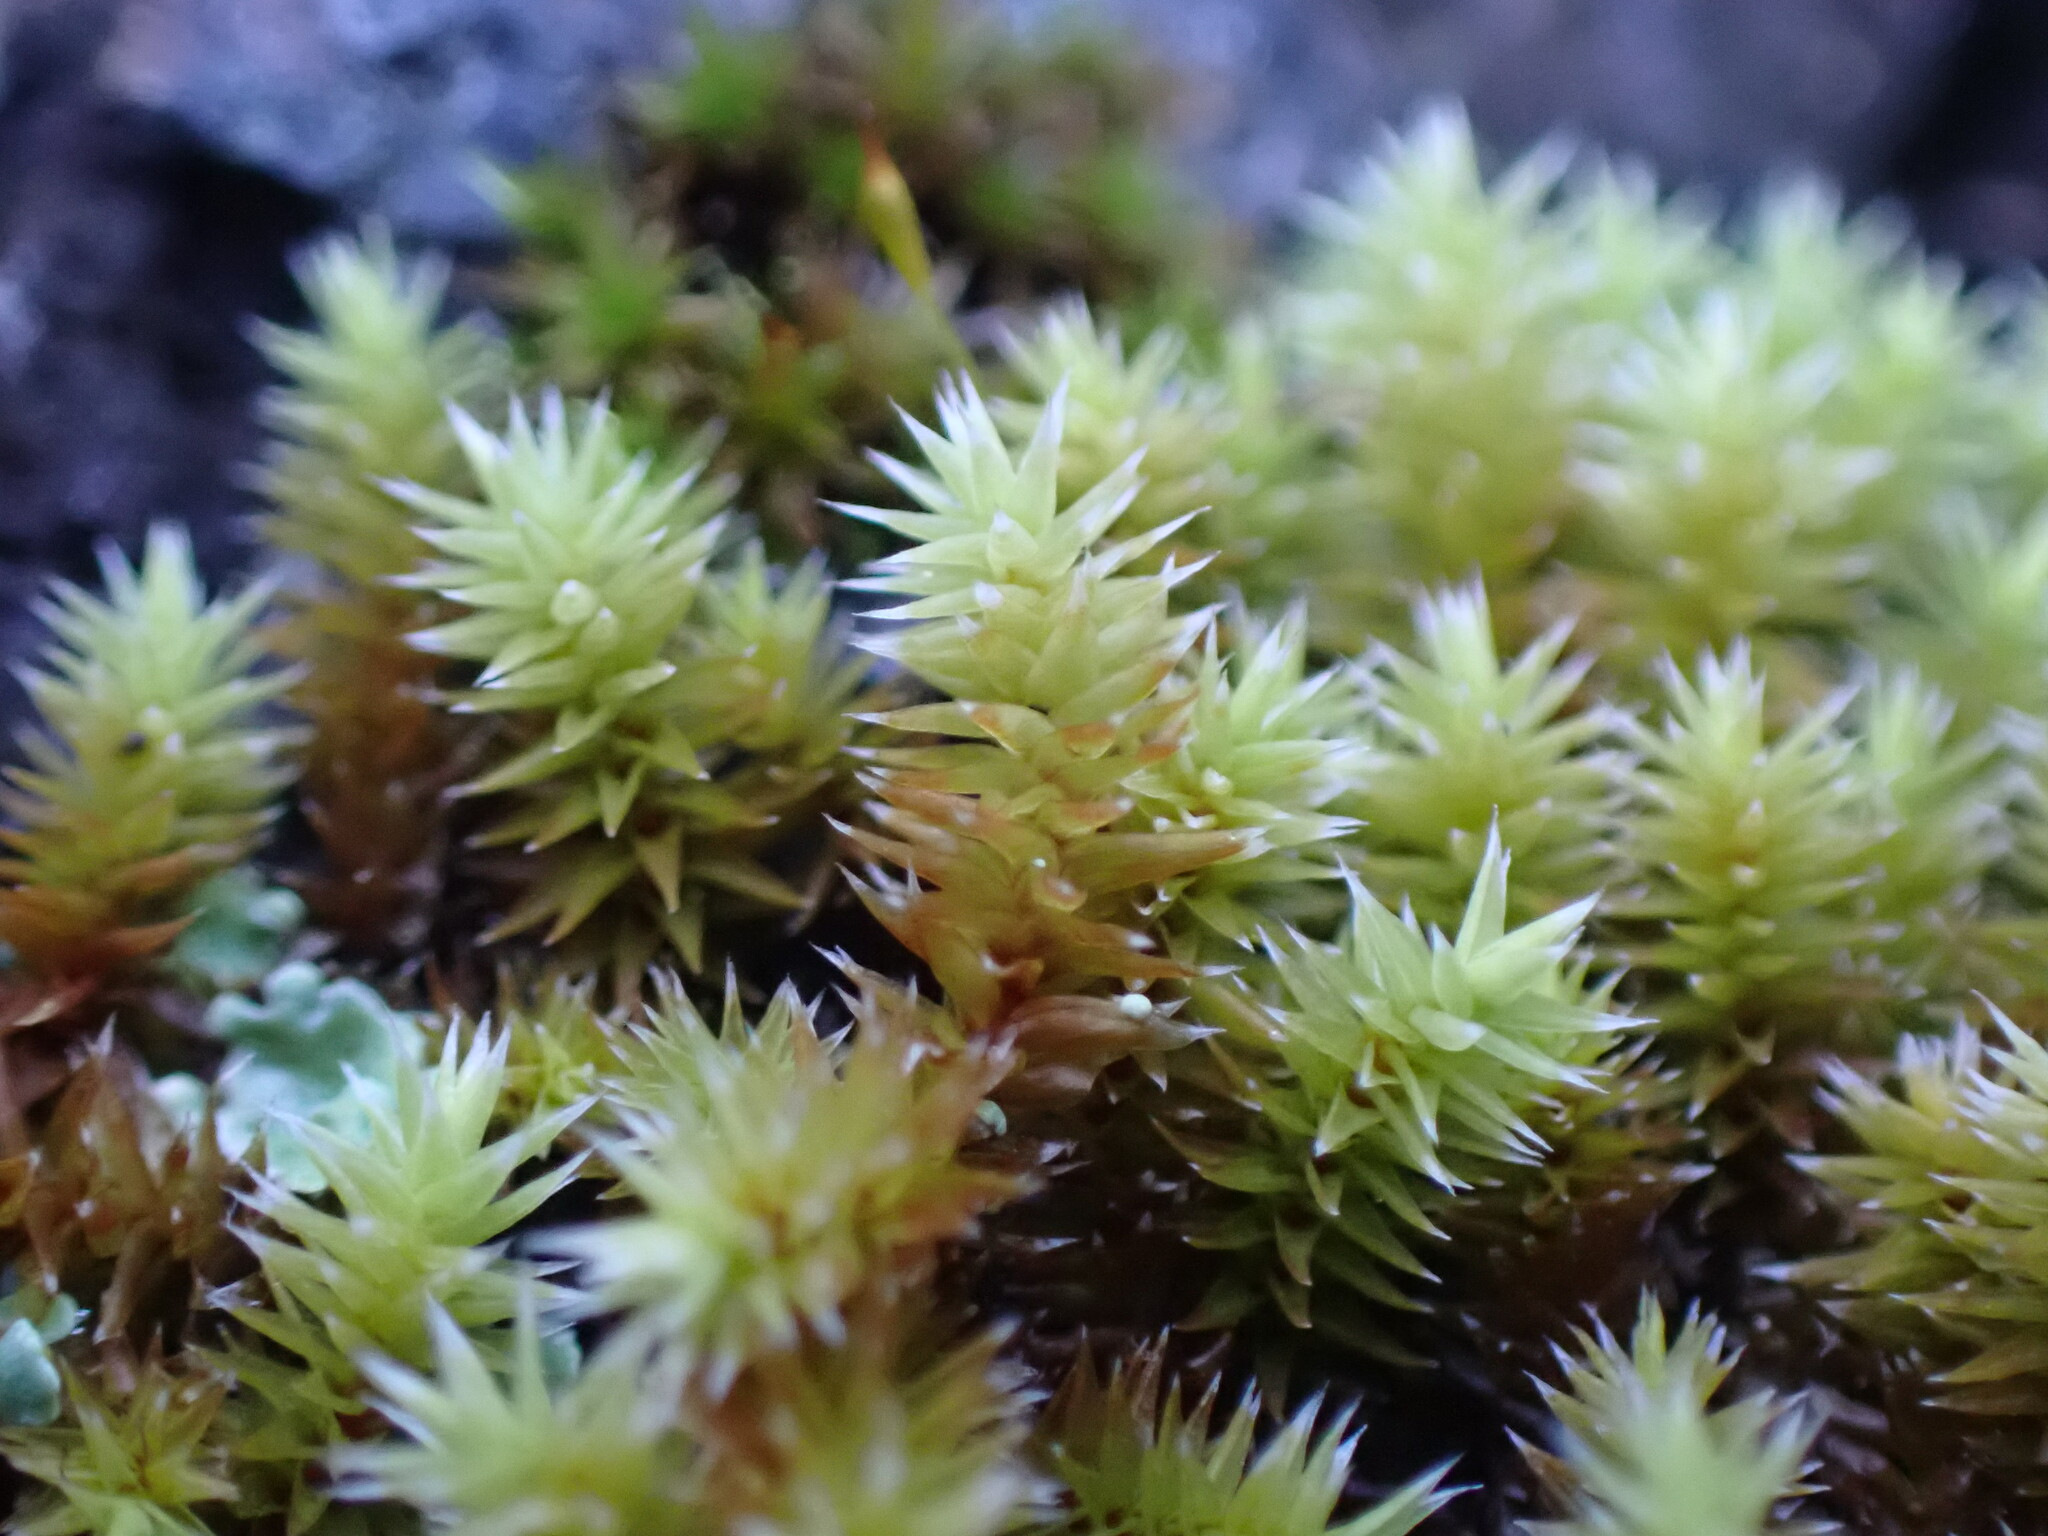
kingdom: Plantae
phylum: Bryophyta
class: Bryopsida
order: Hedwigiales
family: Hedwigiaceae
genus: Hedwigia
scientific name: Hedwigia ciliata
